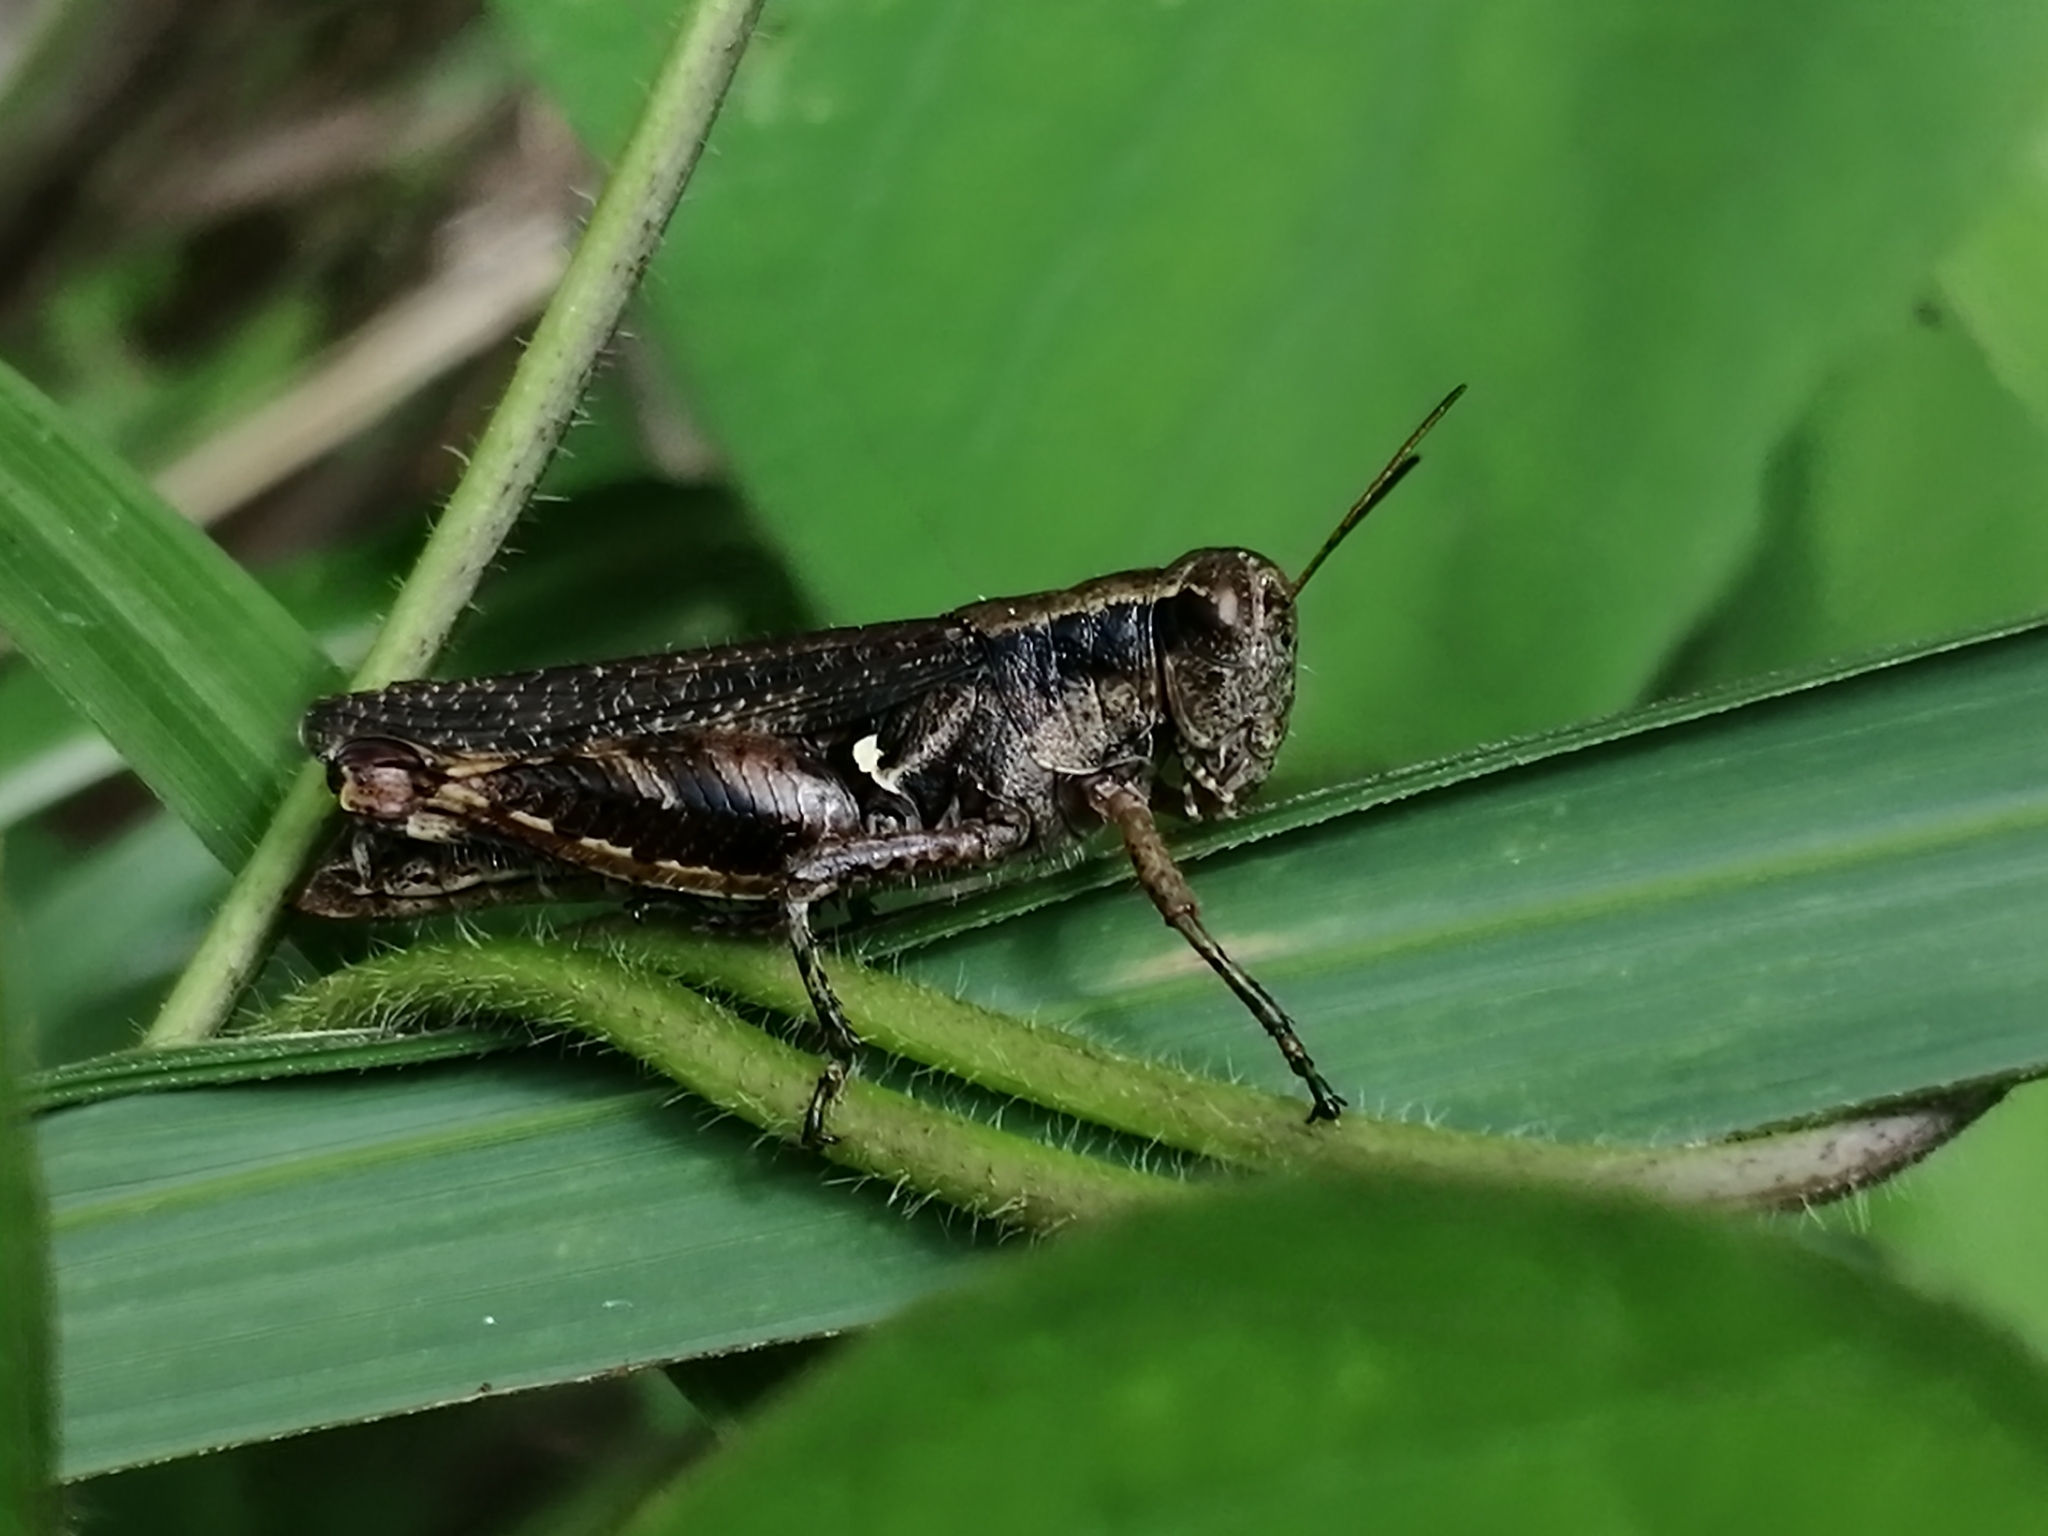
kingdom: Animalia
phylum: Arthropoda
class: Insecta
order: Orthoptera
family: Acrididae
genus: Aidemona
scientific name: Aidemona azteca
